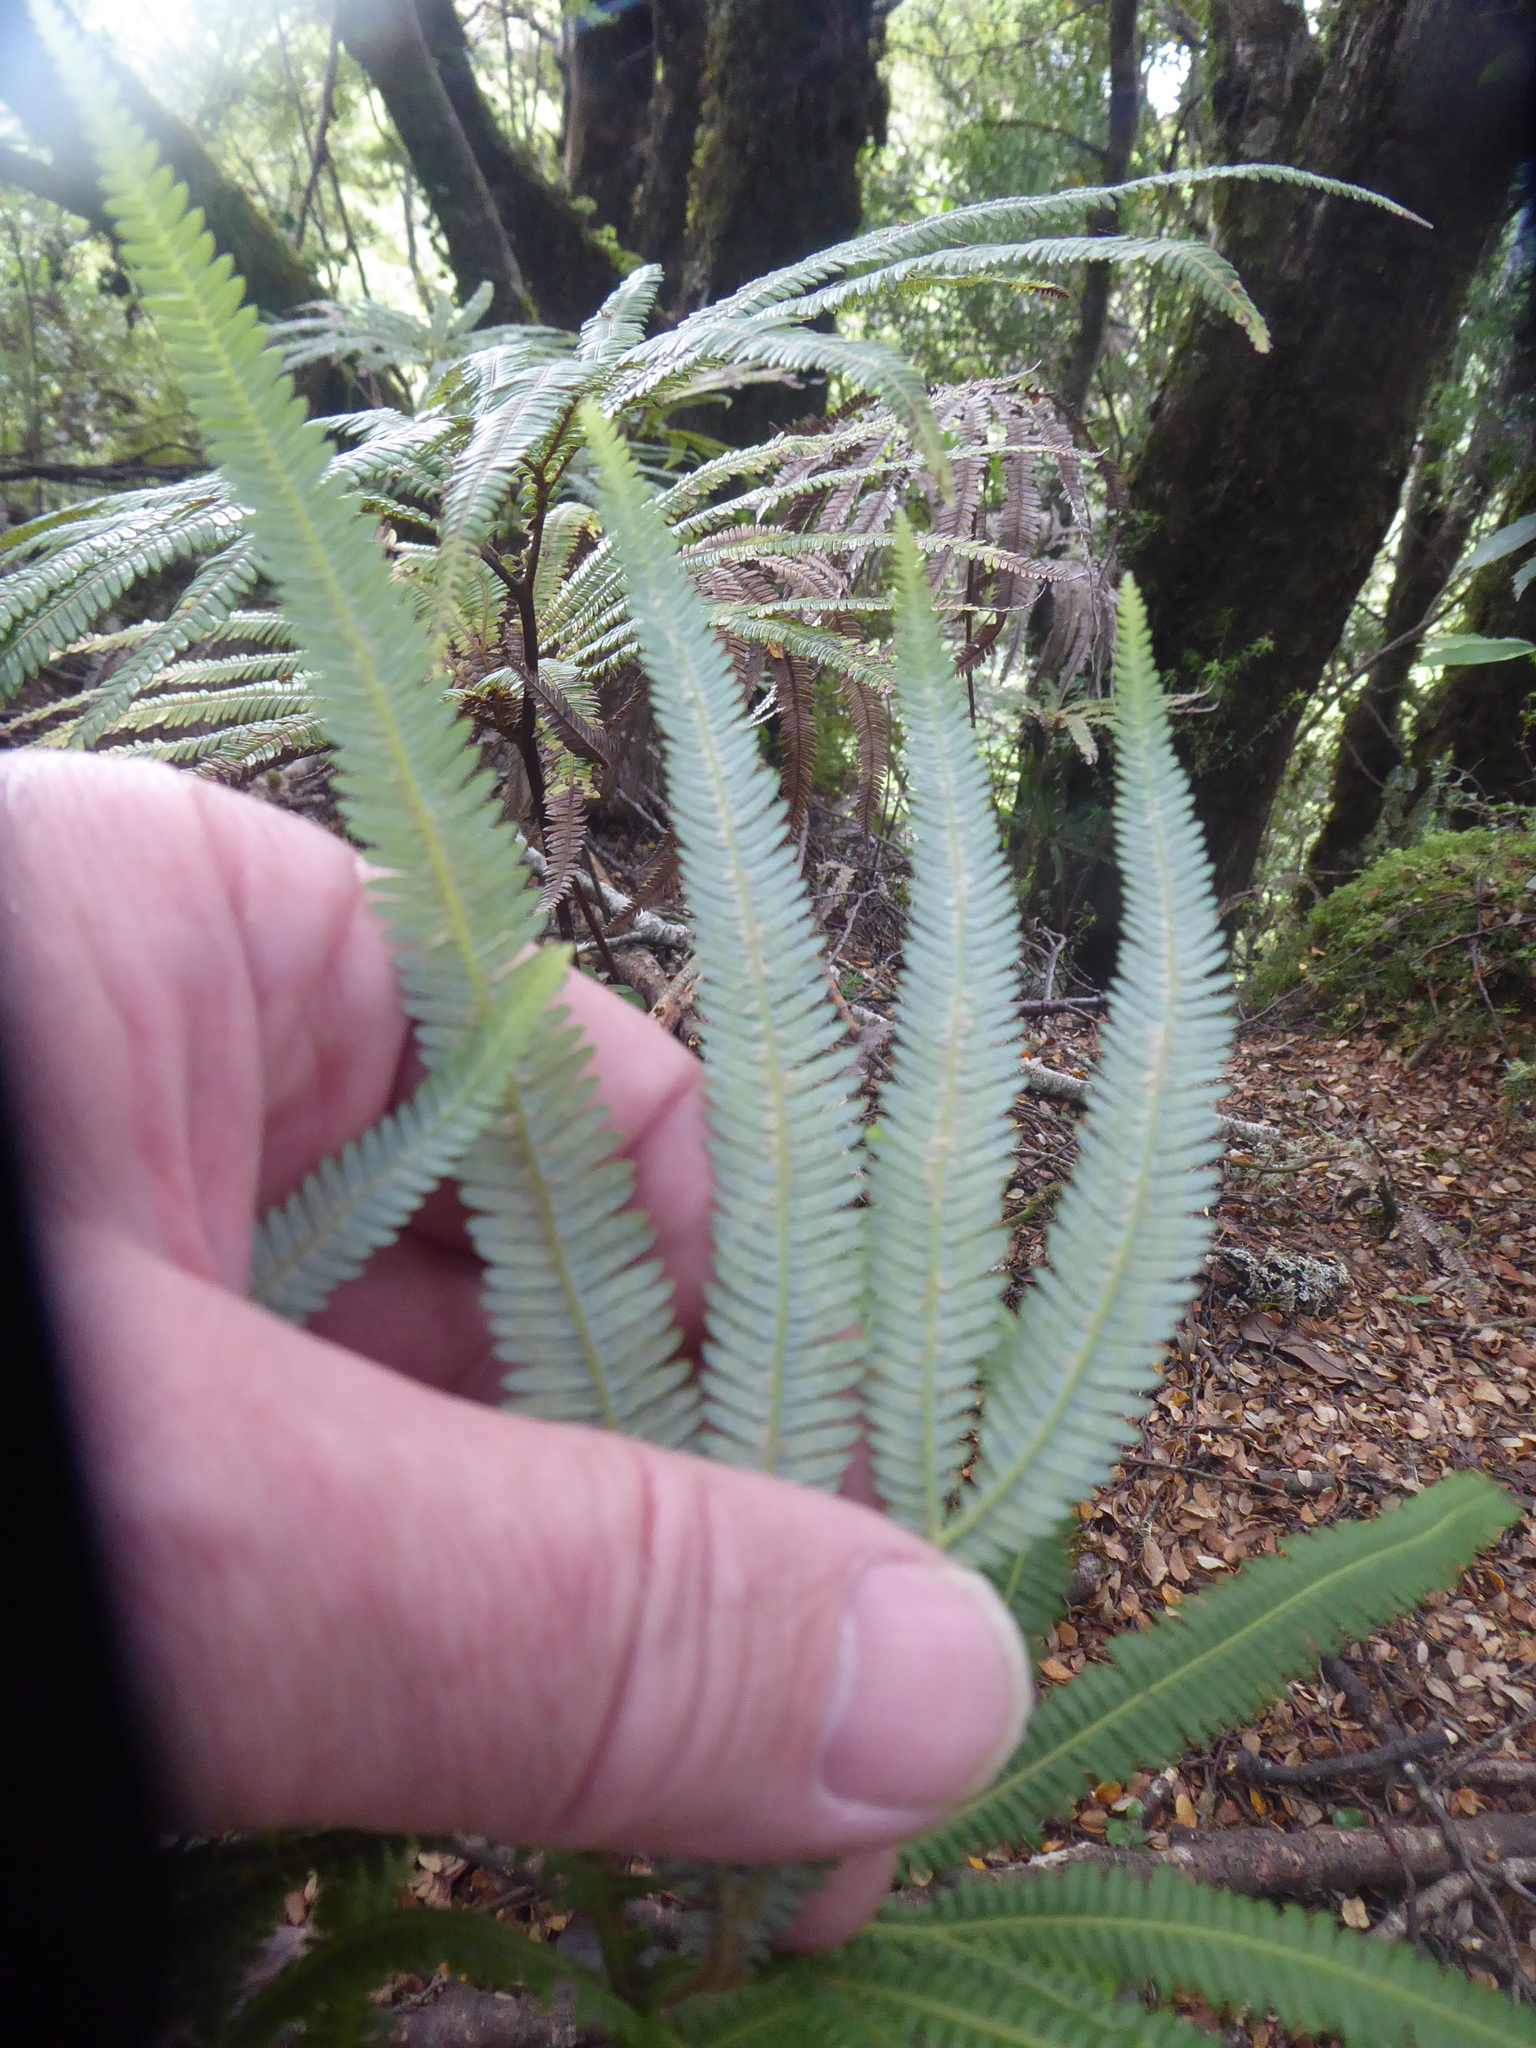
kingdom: Plantae
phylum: Tracheophyta
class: Polypodiopsida
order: Gleicheniales
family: Gleicheniaceae
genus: Sticherus
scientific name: Sticherus cunninghamii
